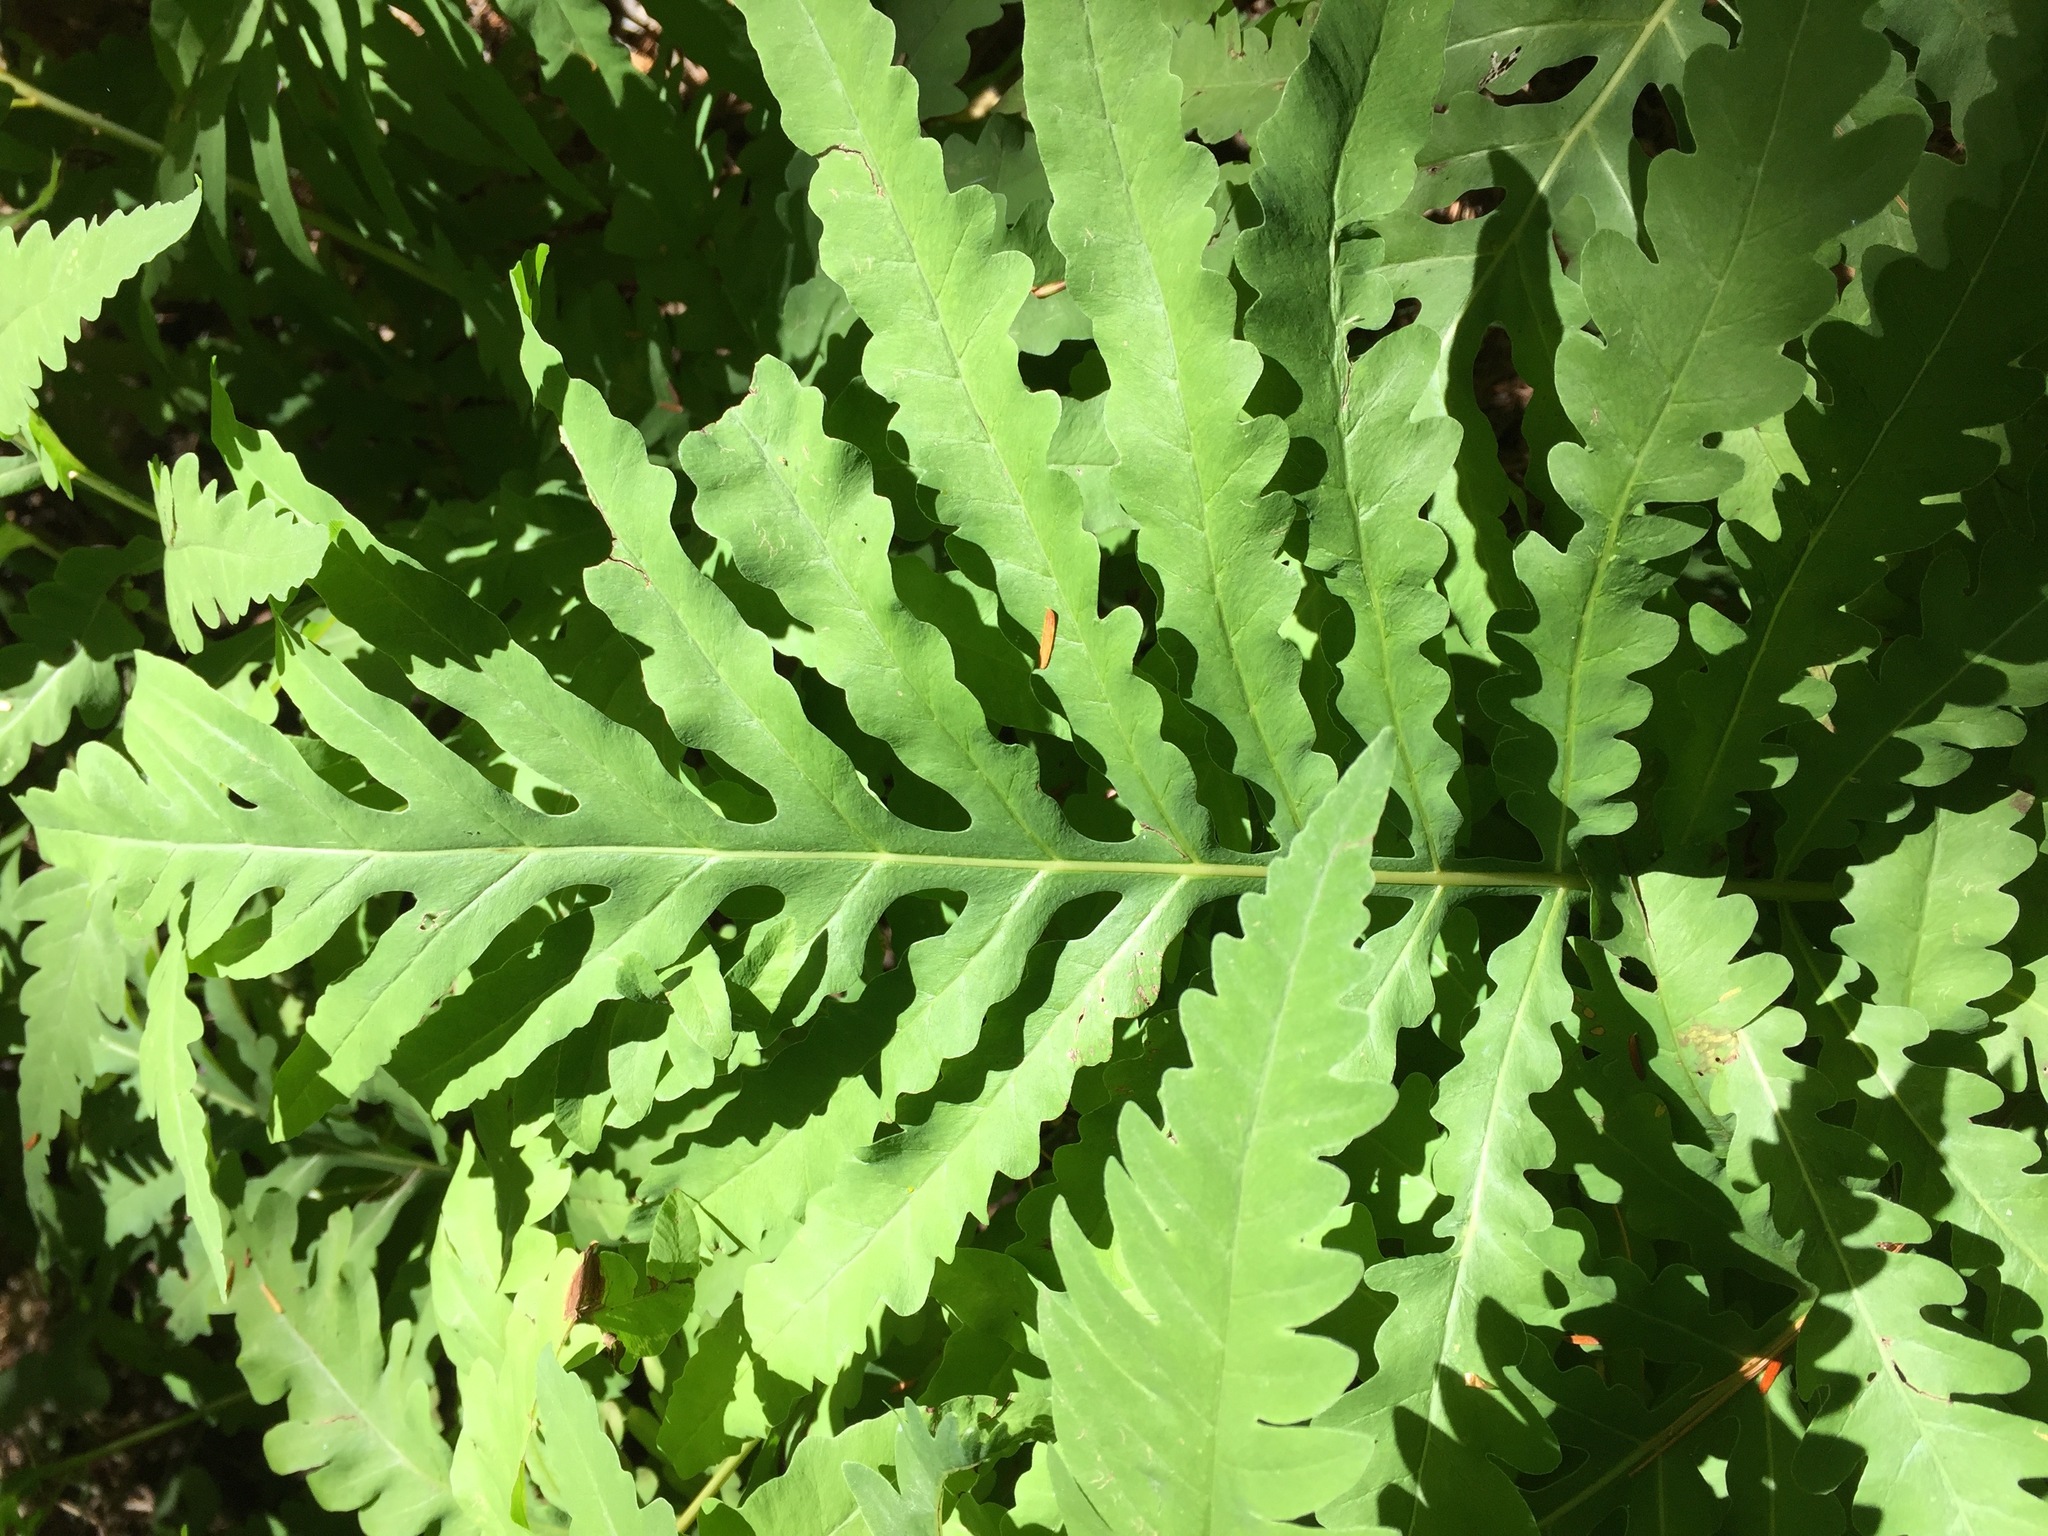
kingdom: Plantae
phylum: Tracheophyta
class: Polypodiopsida
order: Polypodiales
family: Onocleaceae
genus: Onoclea
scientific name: Onoclea sensibilis
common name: Sensitive fern
